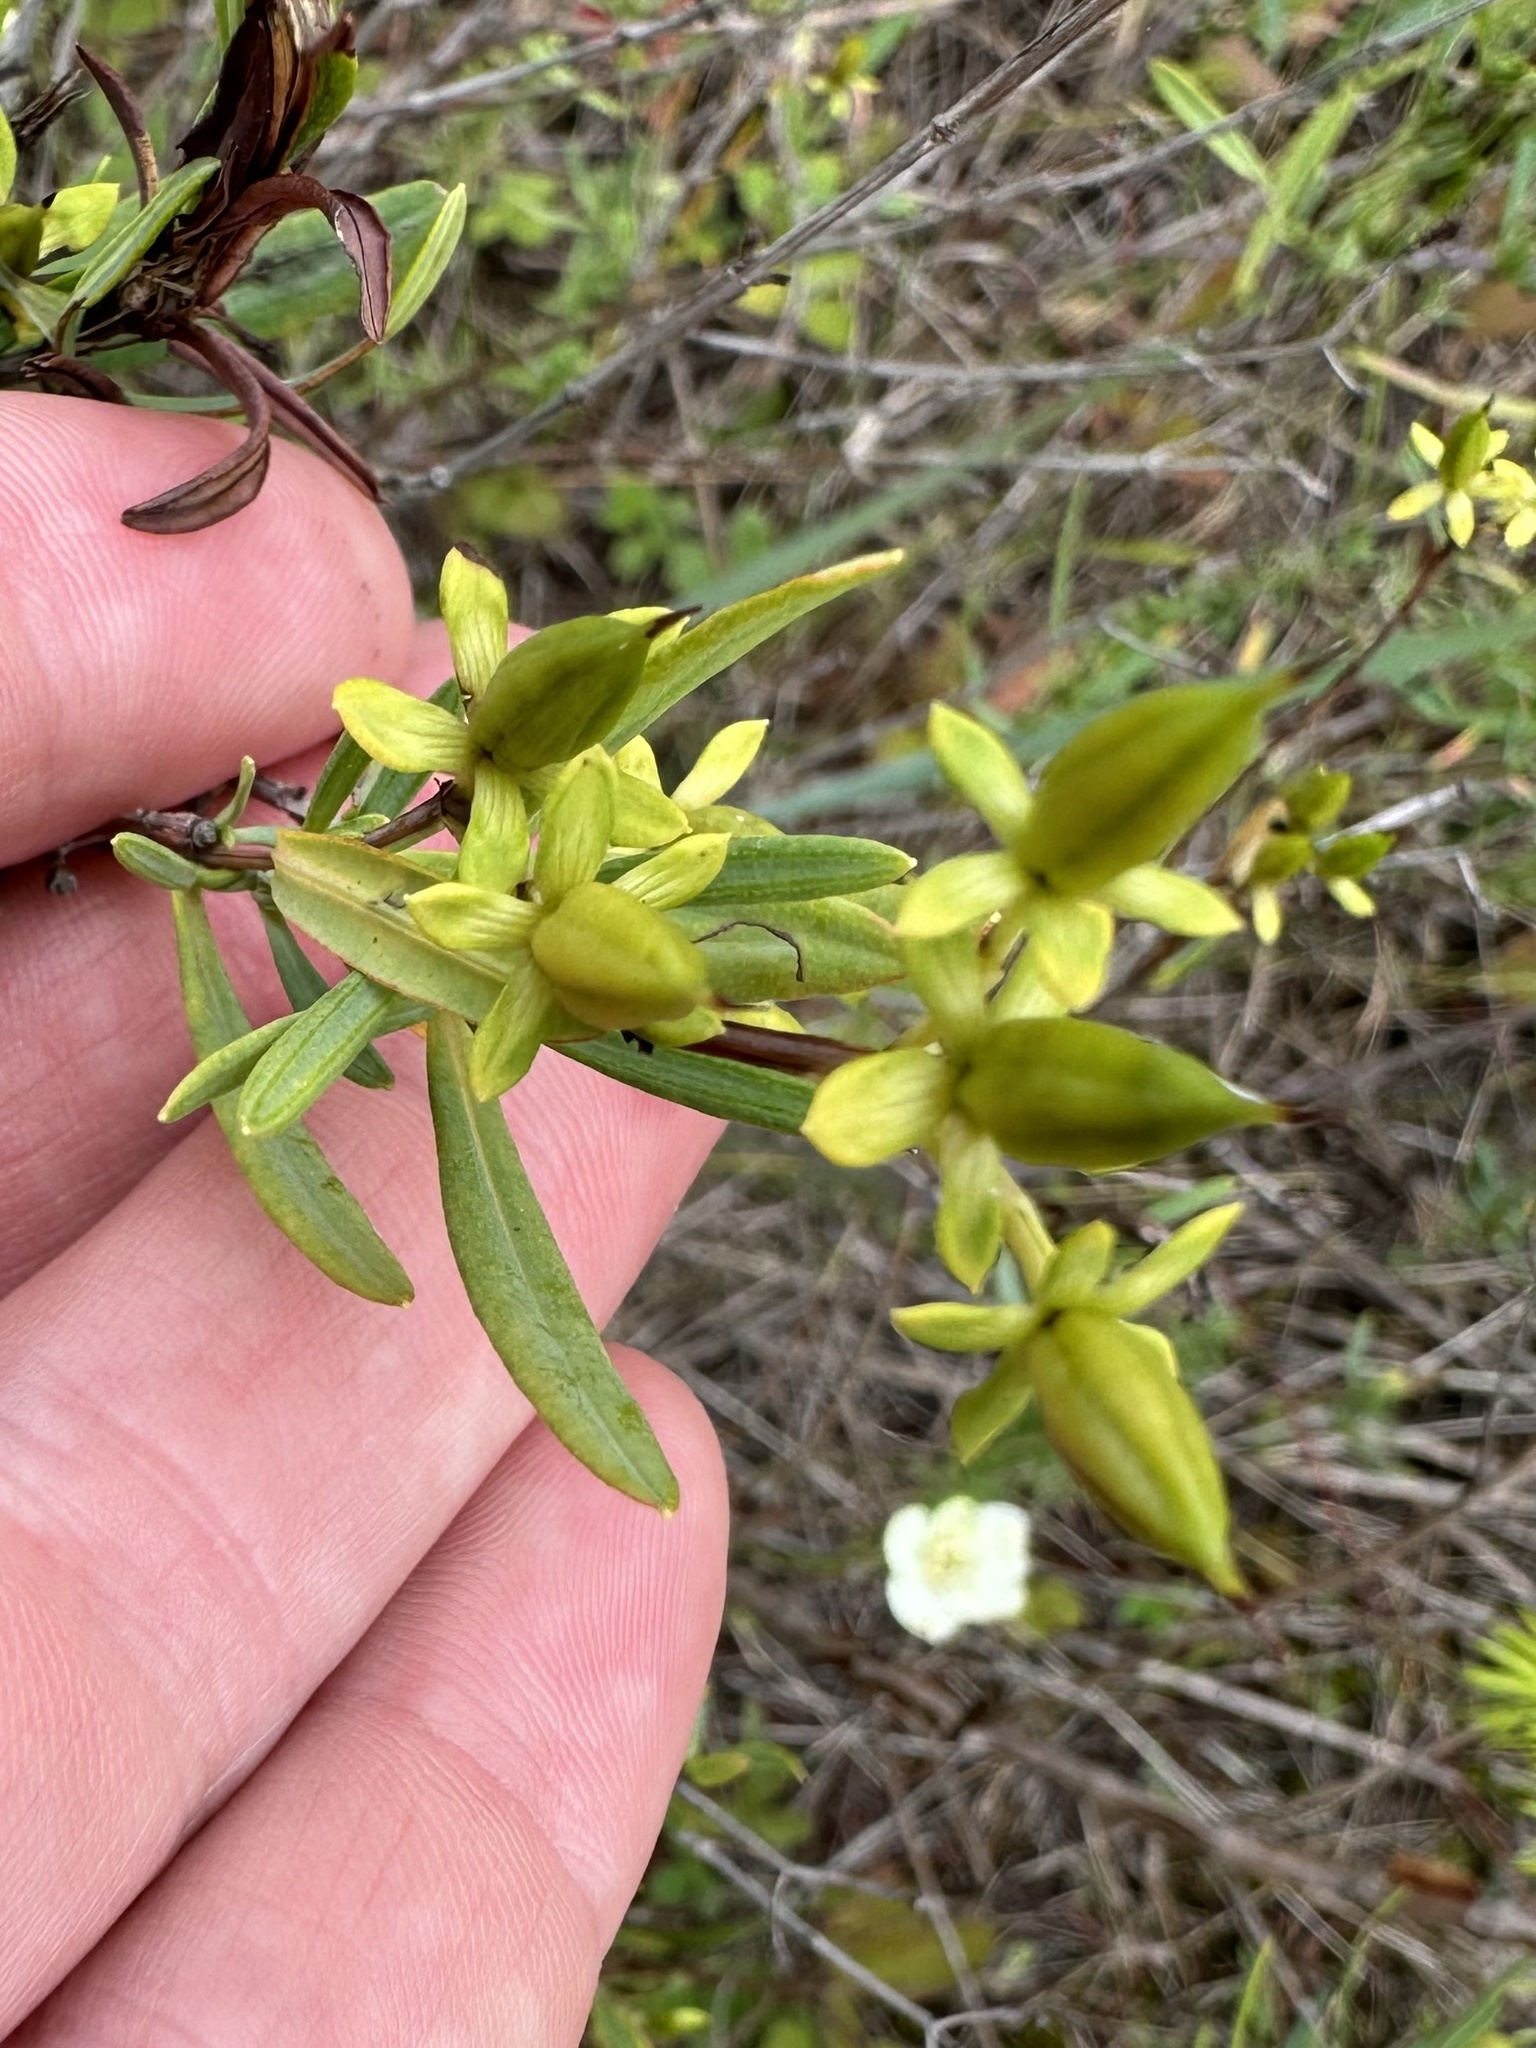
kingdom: Plantae
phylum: Tracheophyta
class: Magnoliopsida
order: Malpighiales
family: Hypericaceae
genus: Hypericum
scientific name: Hypericum kalmianum
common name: Kalm's st. john's-wort
